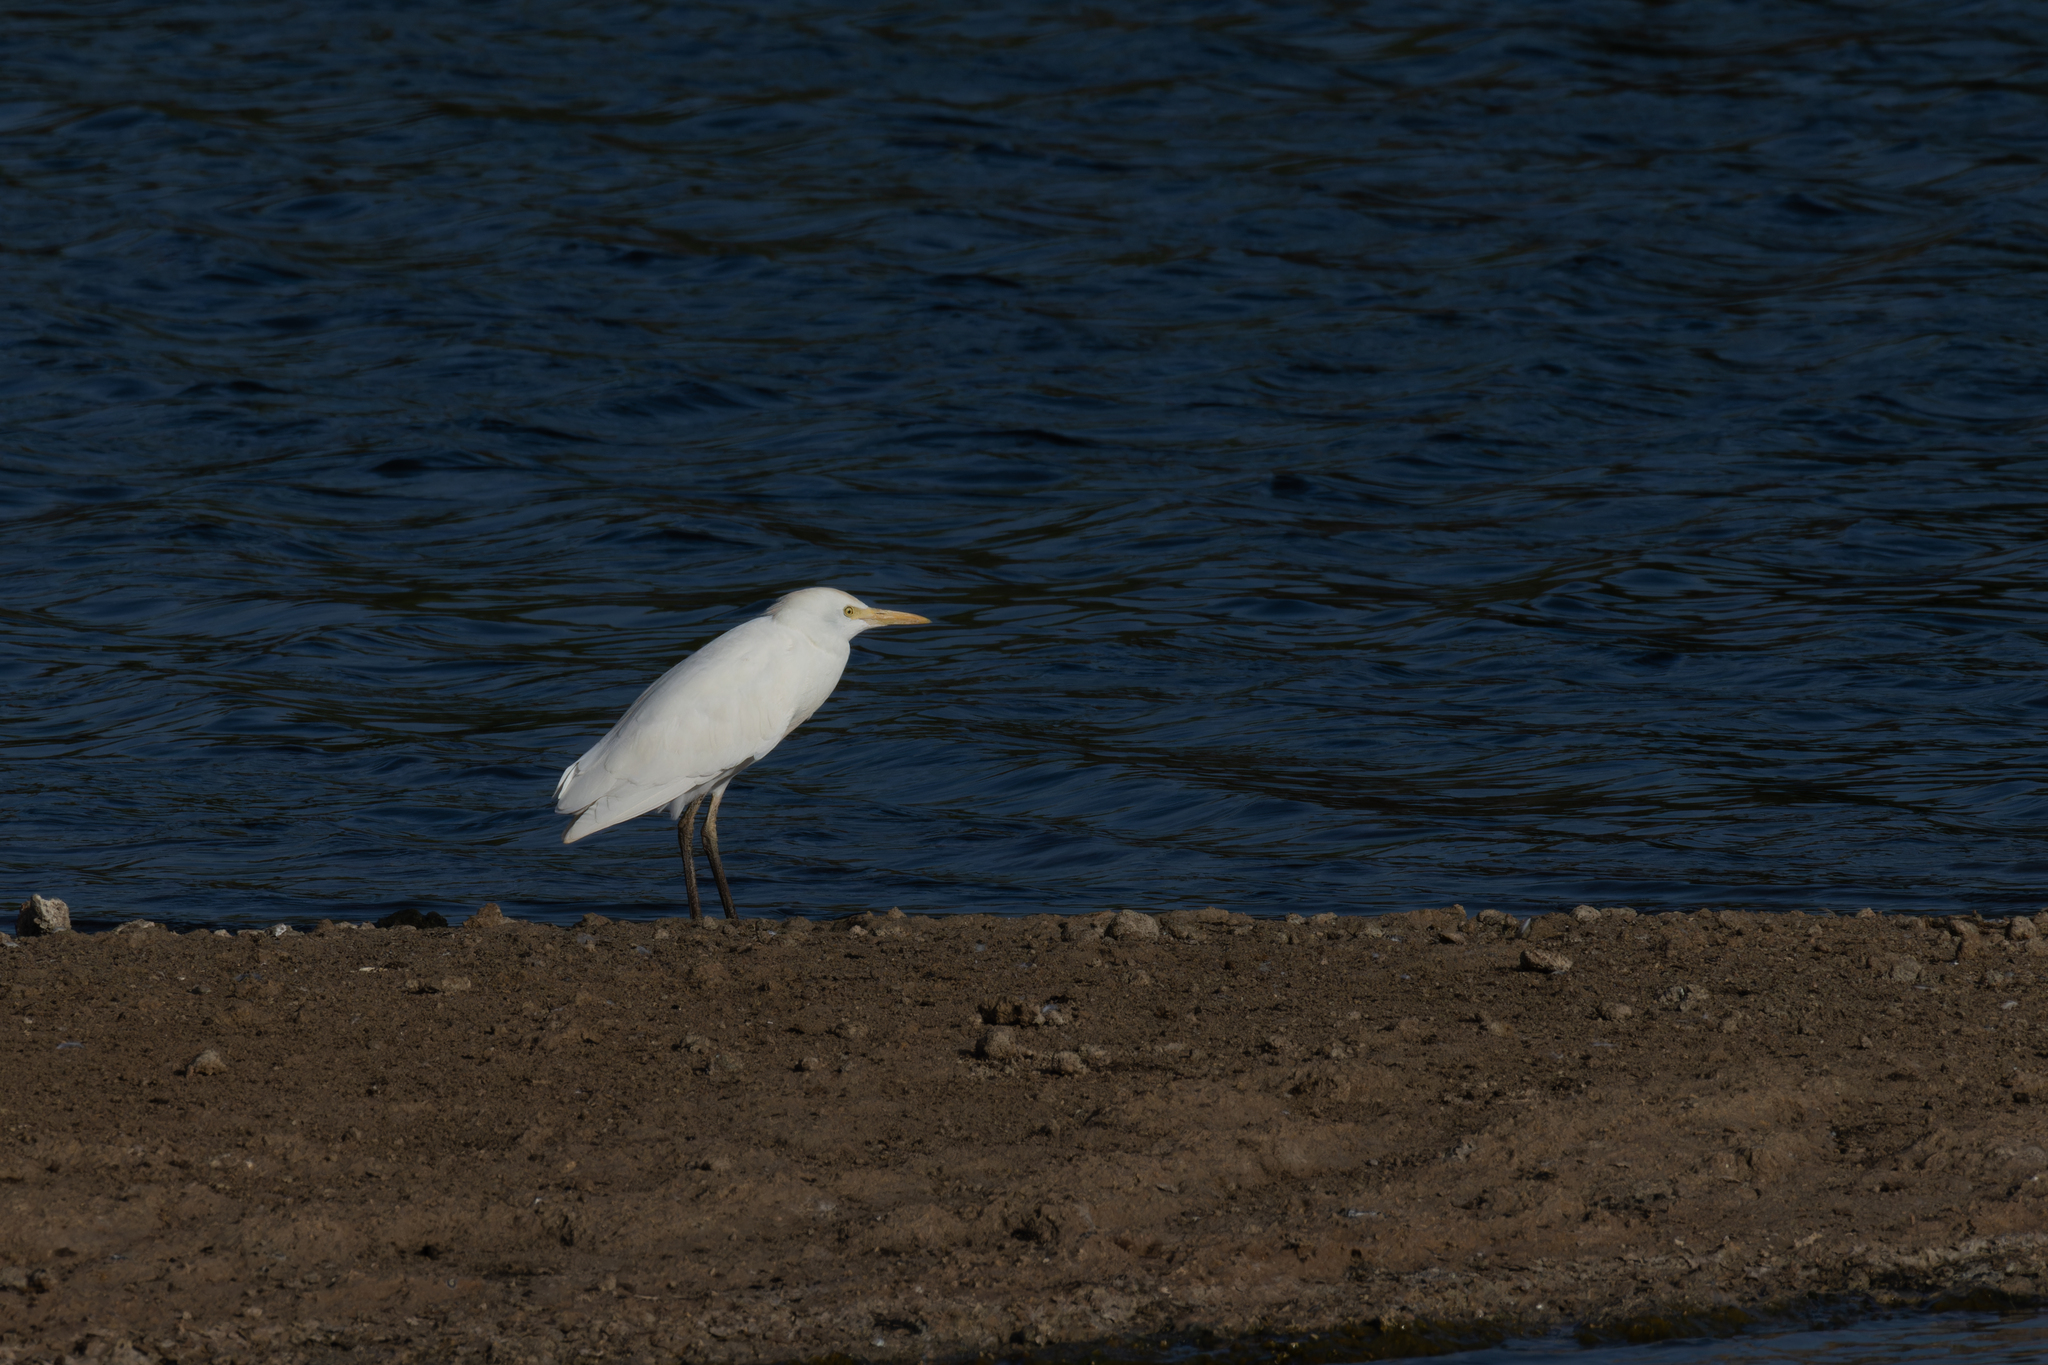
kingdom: Animalia
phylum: Chordata
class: Aves
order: Pelecaniformes
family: Ardeidae
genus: Bubulcus
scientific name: Bubulcus ibis
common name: Cattle egret
